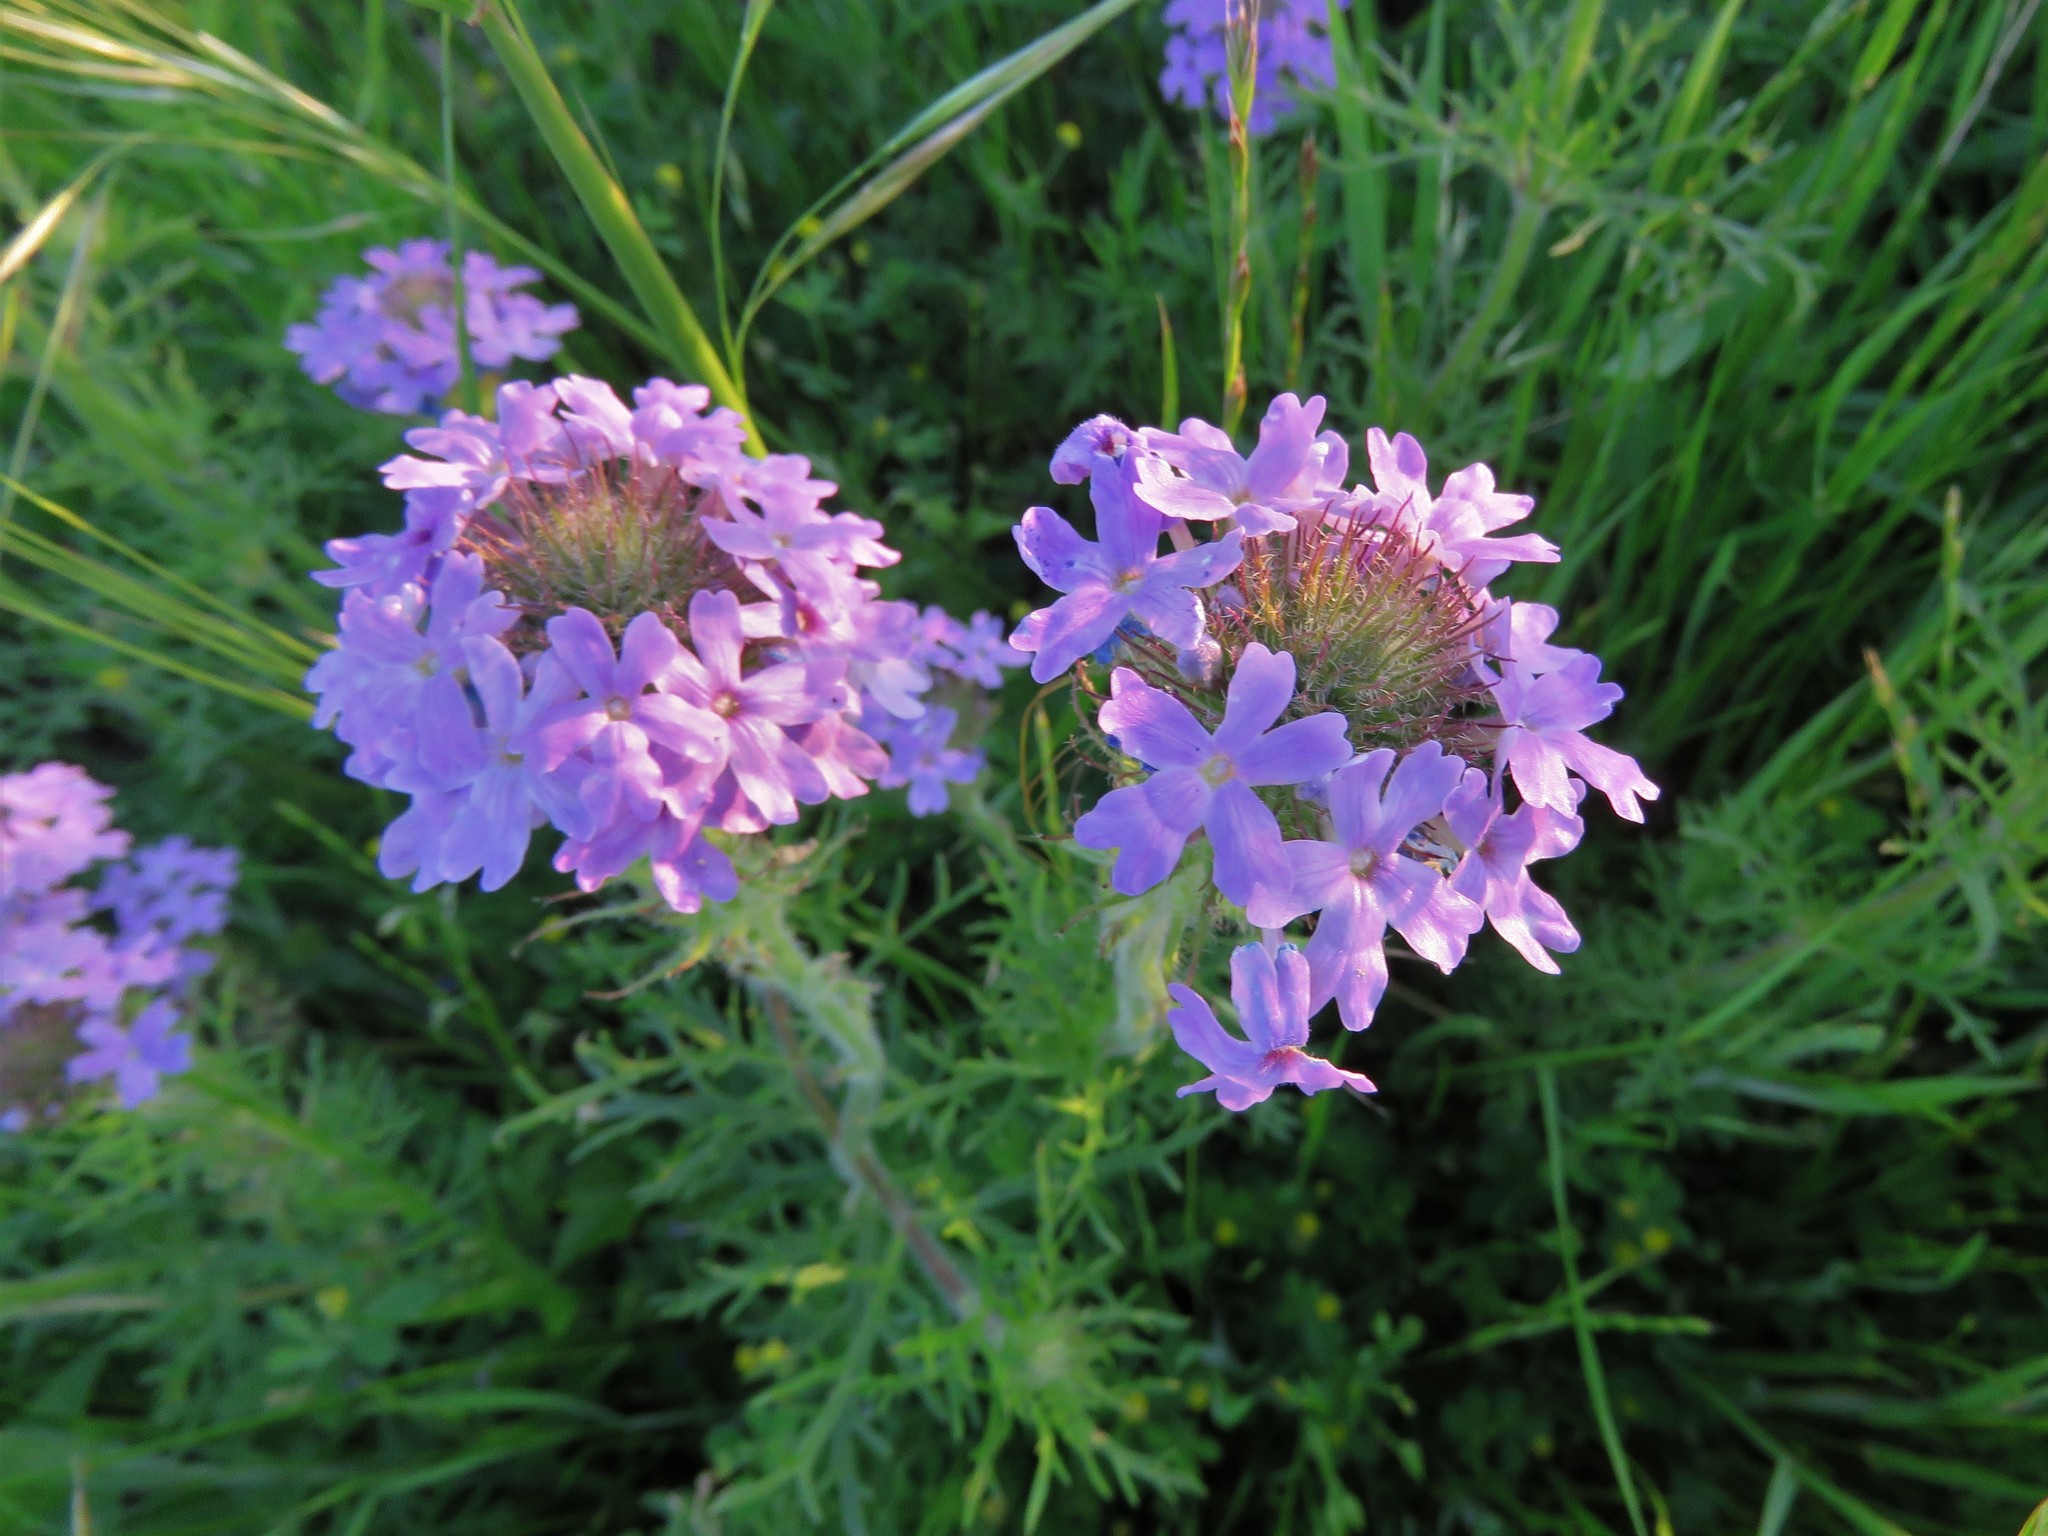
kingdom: Plantae
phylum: Tracheophyta
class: Magnoliopsida
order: Lamiales
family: Verbenaceae
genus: Verbena
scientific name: Verbena bipinnatifida
